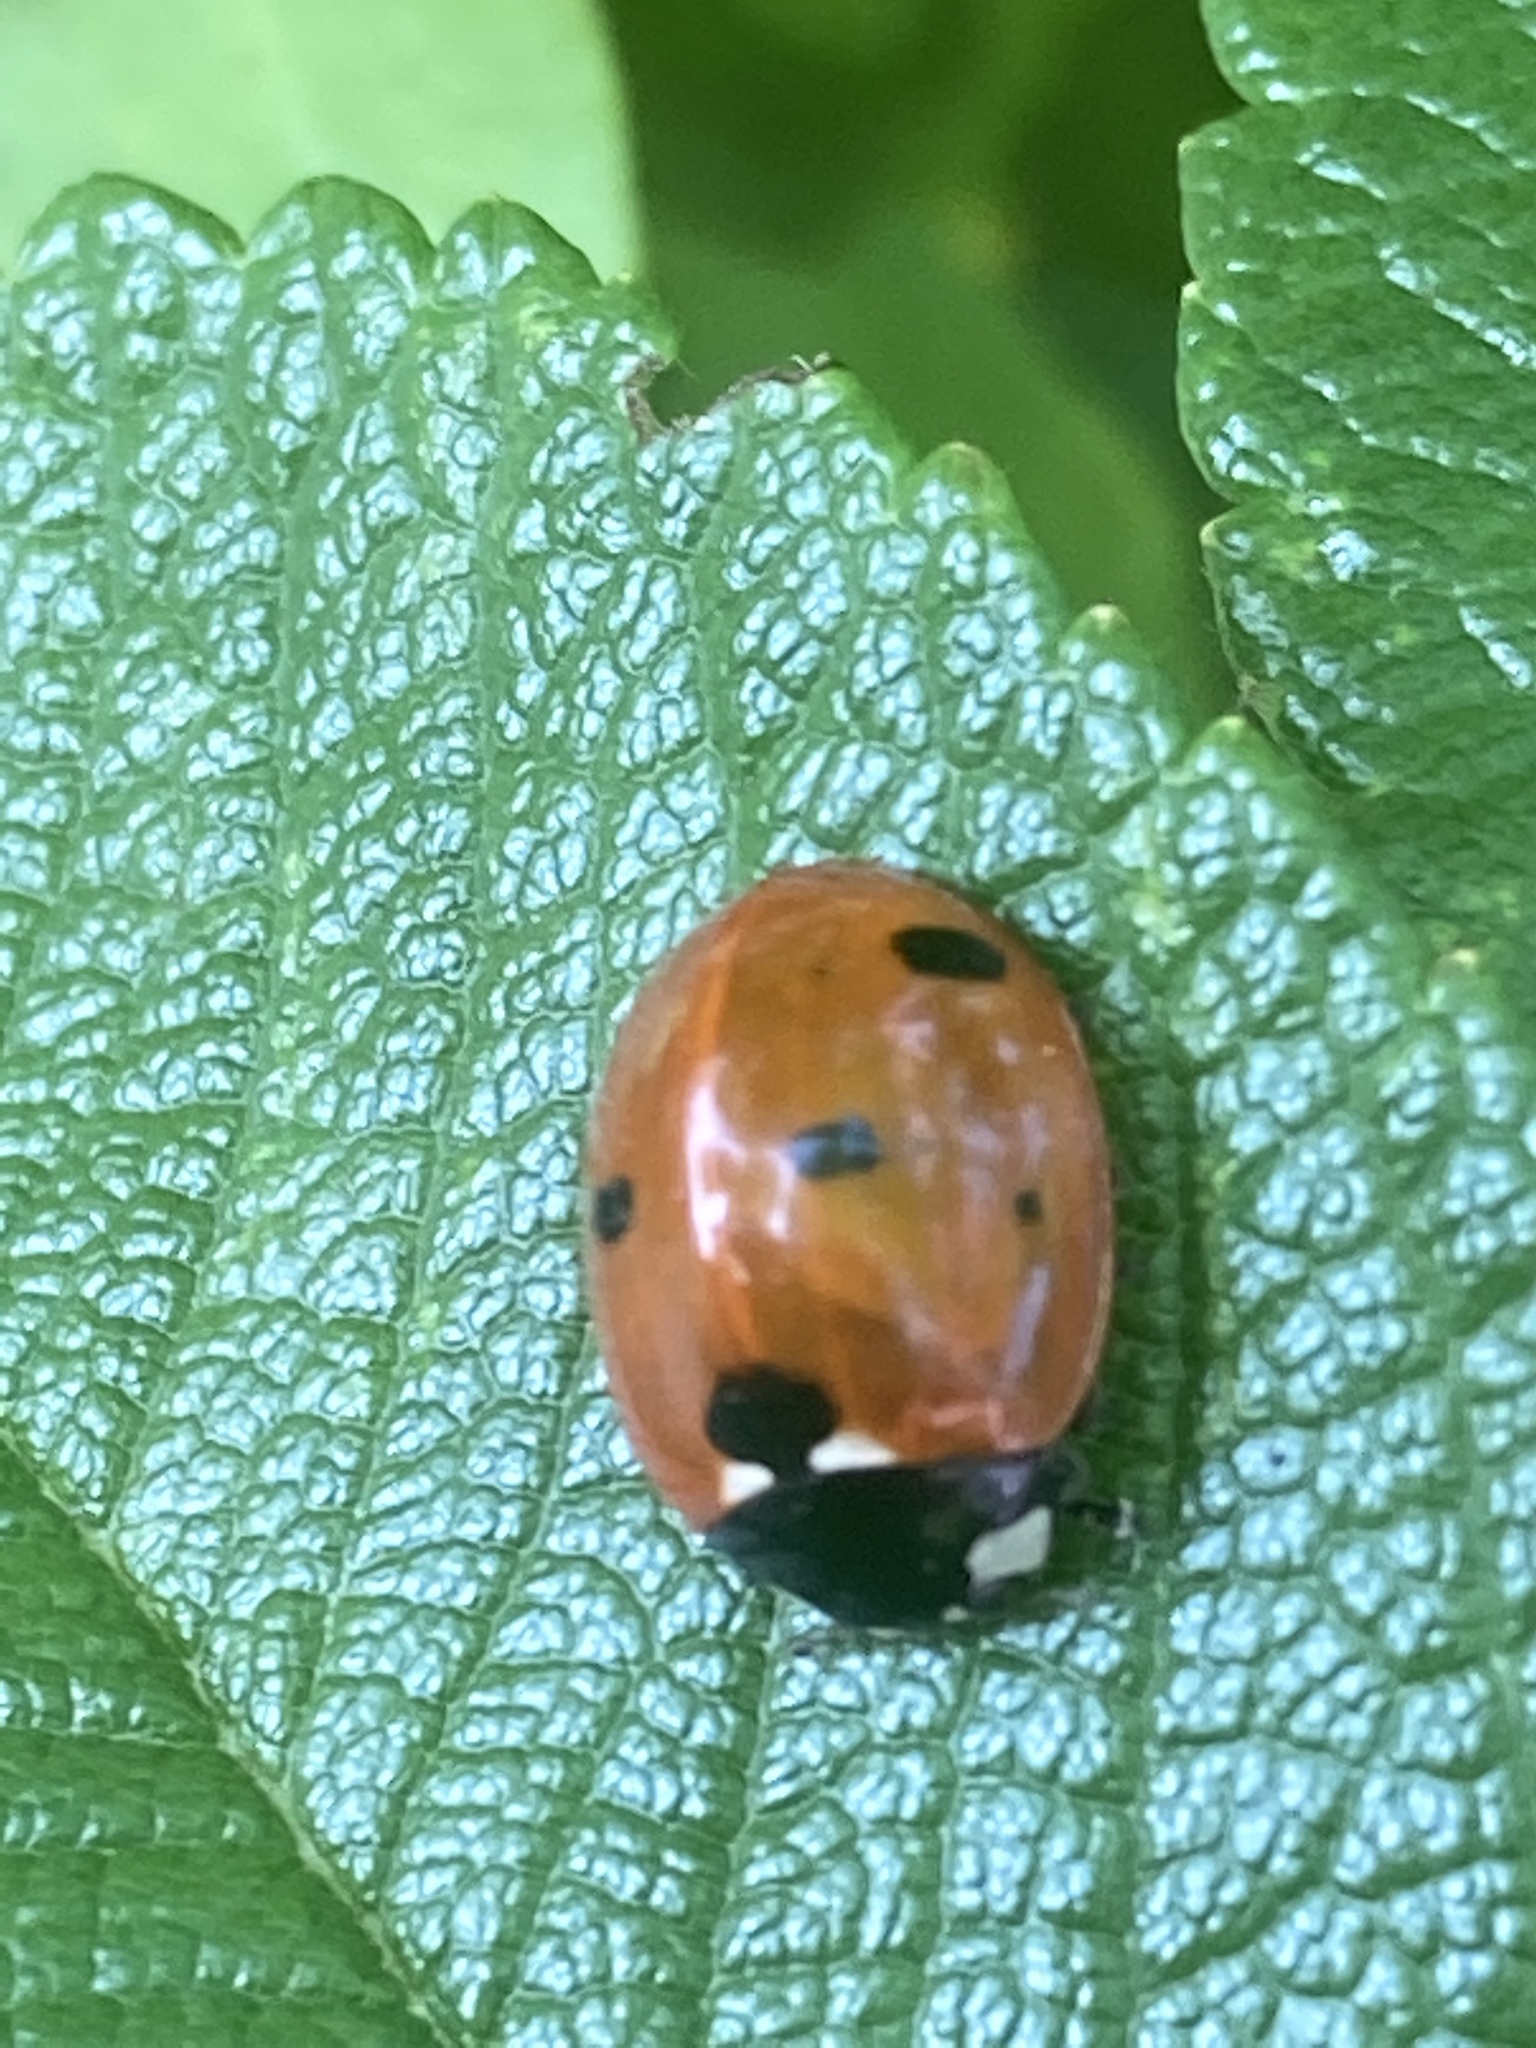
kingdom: Animalia
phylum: Arthropoda
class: Insecta
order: Coleoptera
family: Coccinellidae
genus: Coccinella
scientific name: Coccinella septempunctata
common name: Sevenspotted lady beetle
